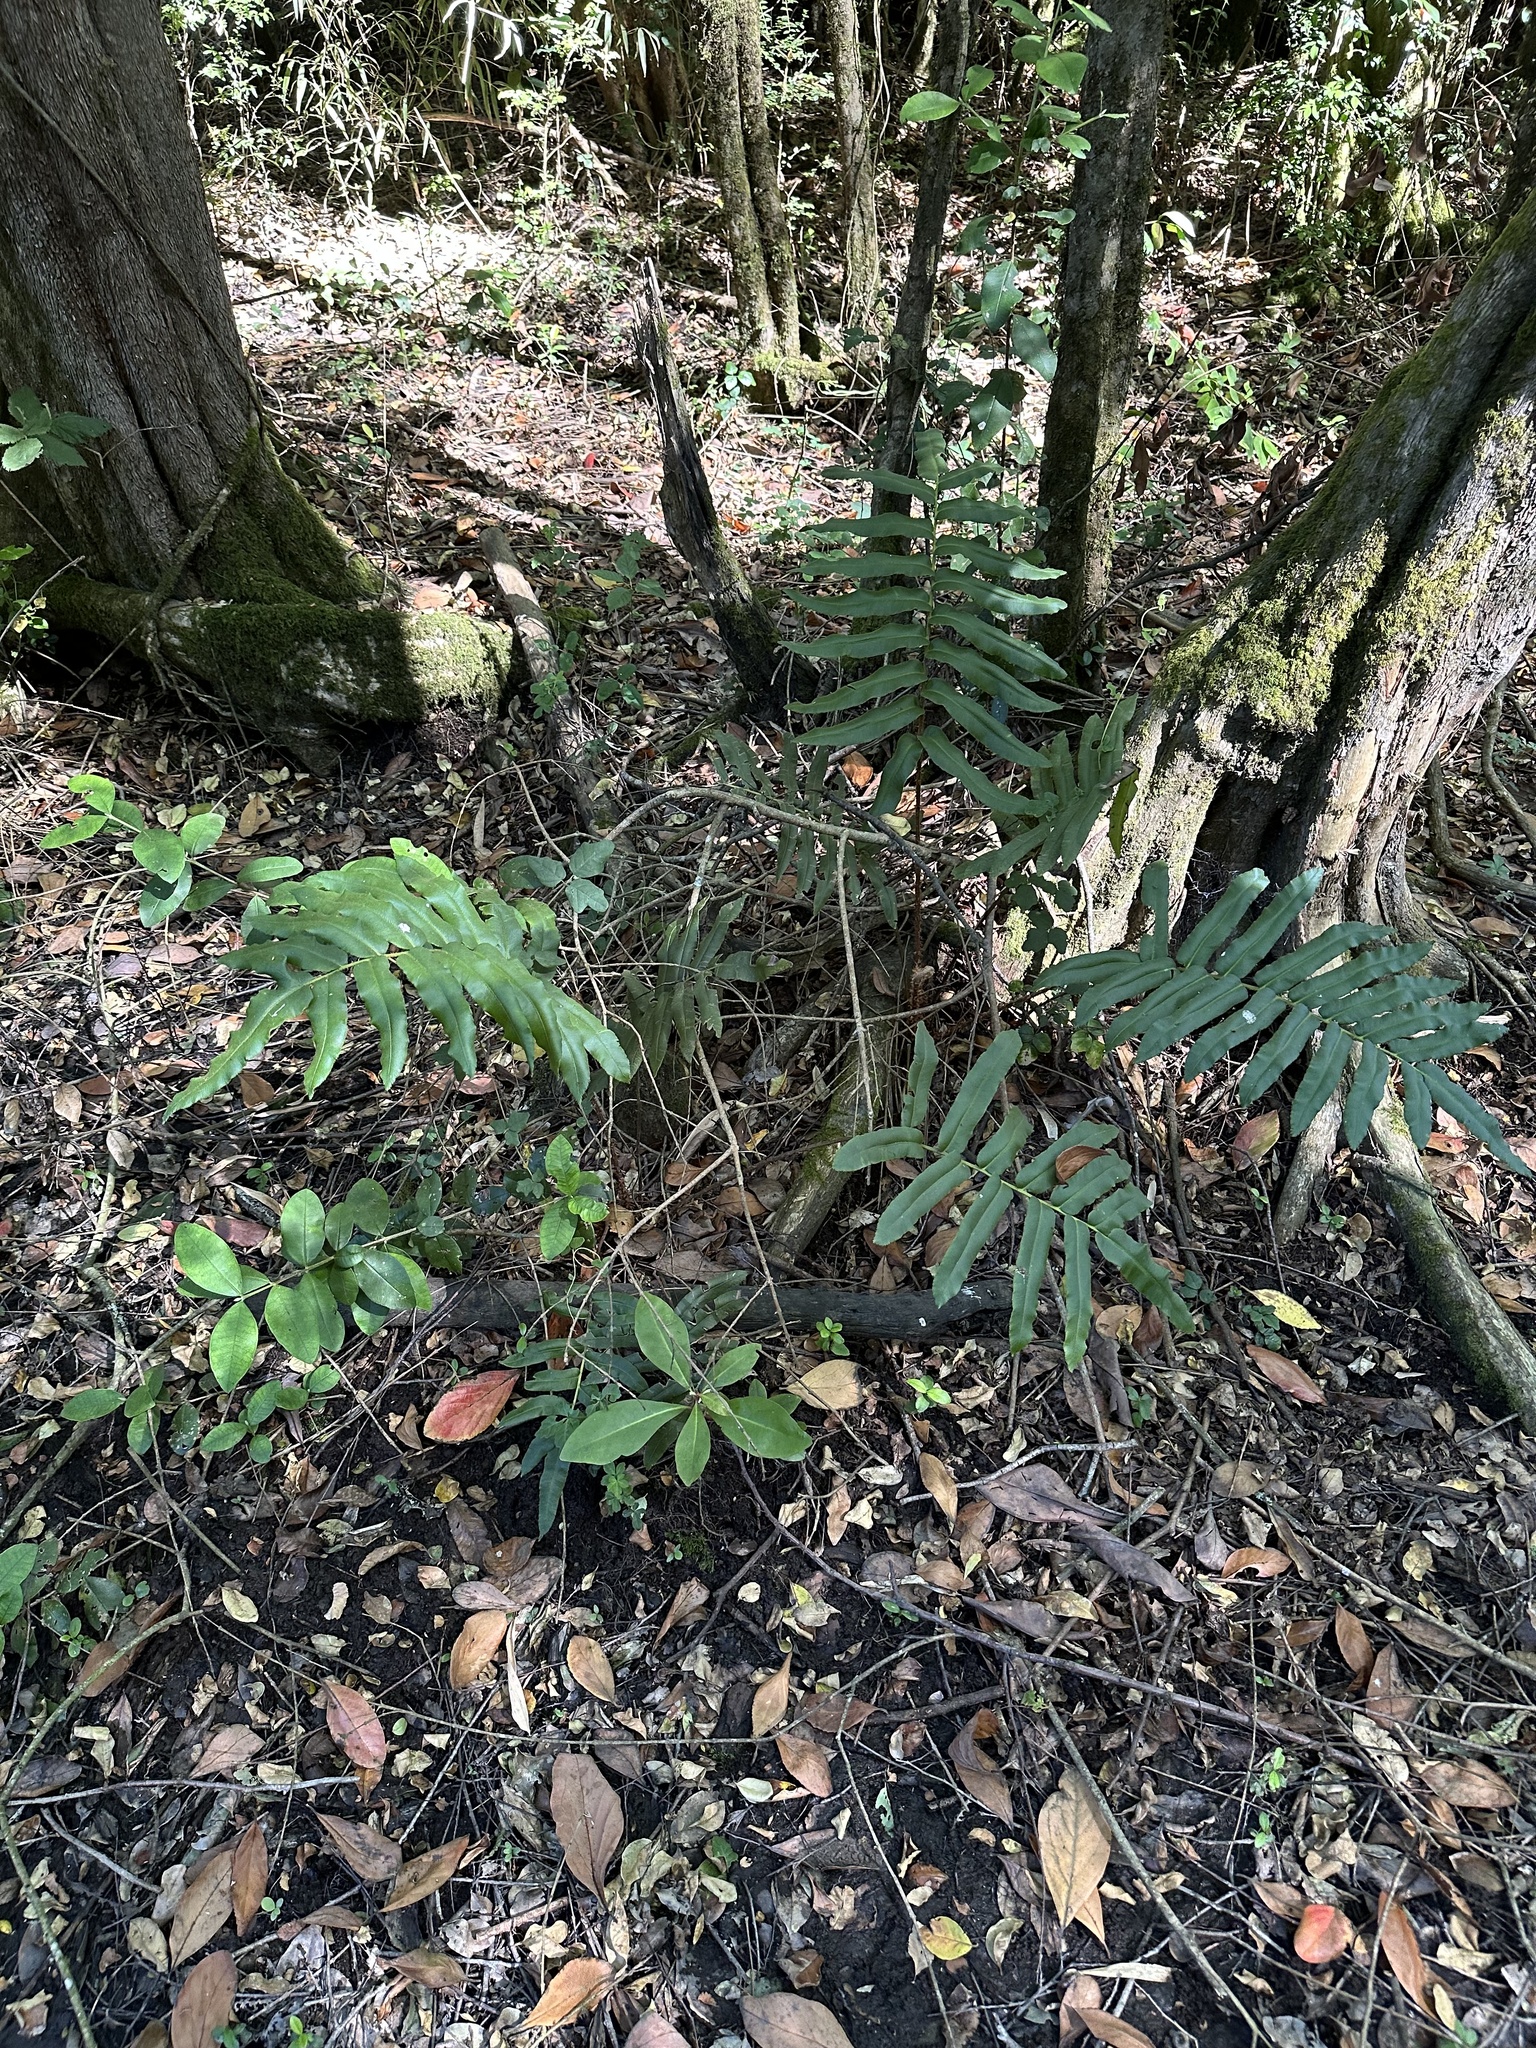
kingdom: Plantae
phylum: Tracheophyta
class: Polypodiopsida
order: Polypodiales
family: Blechnaceae
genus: Parablechnum
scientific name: Parablechnum chilense
